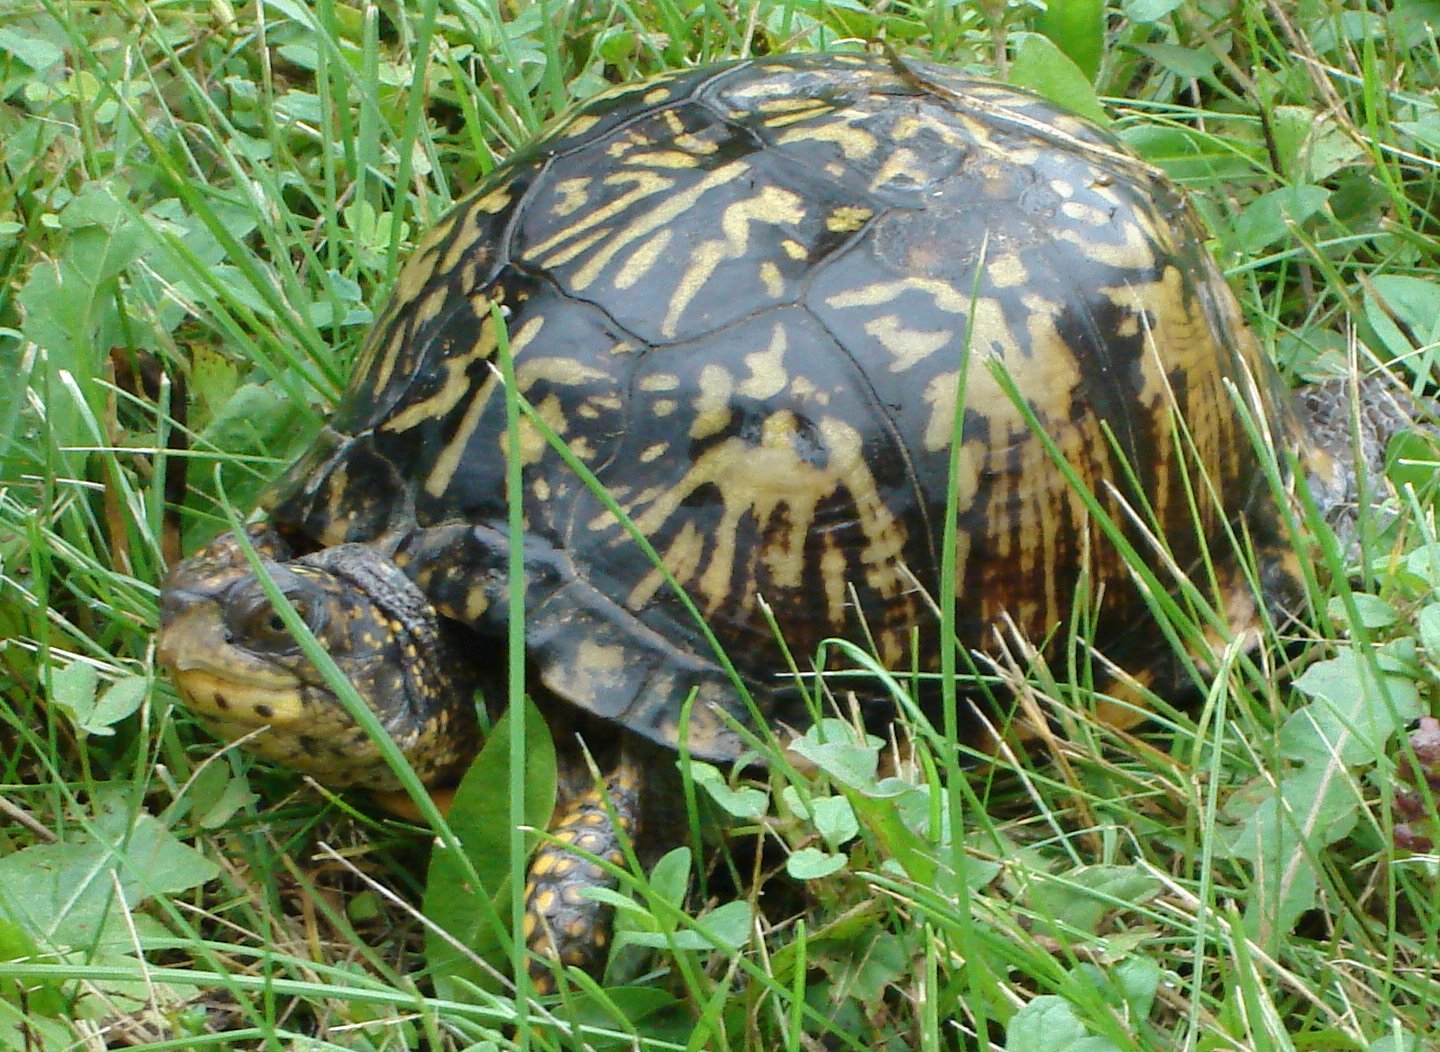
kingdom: Animalia
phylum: Chordata
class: Testudines
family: Emydidae
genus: Terrapene
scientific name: Terrapene carolina
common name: Common box turtle
